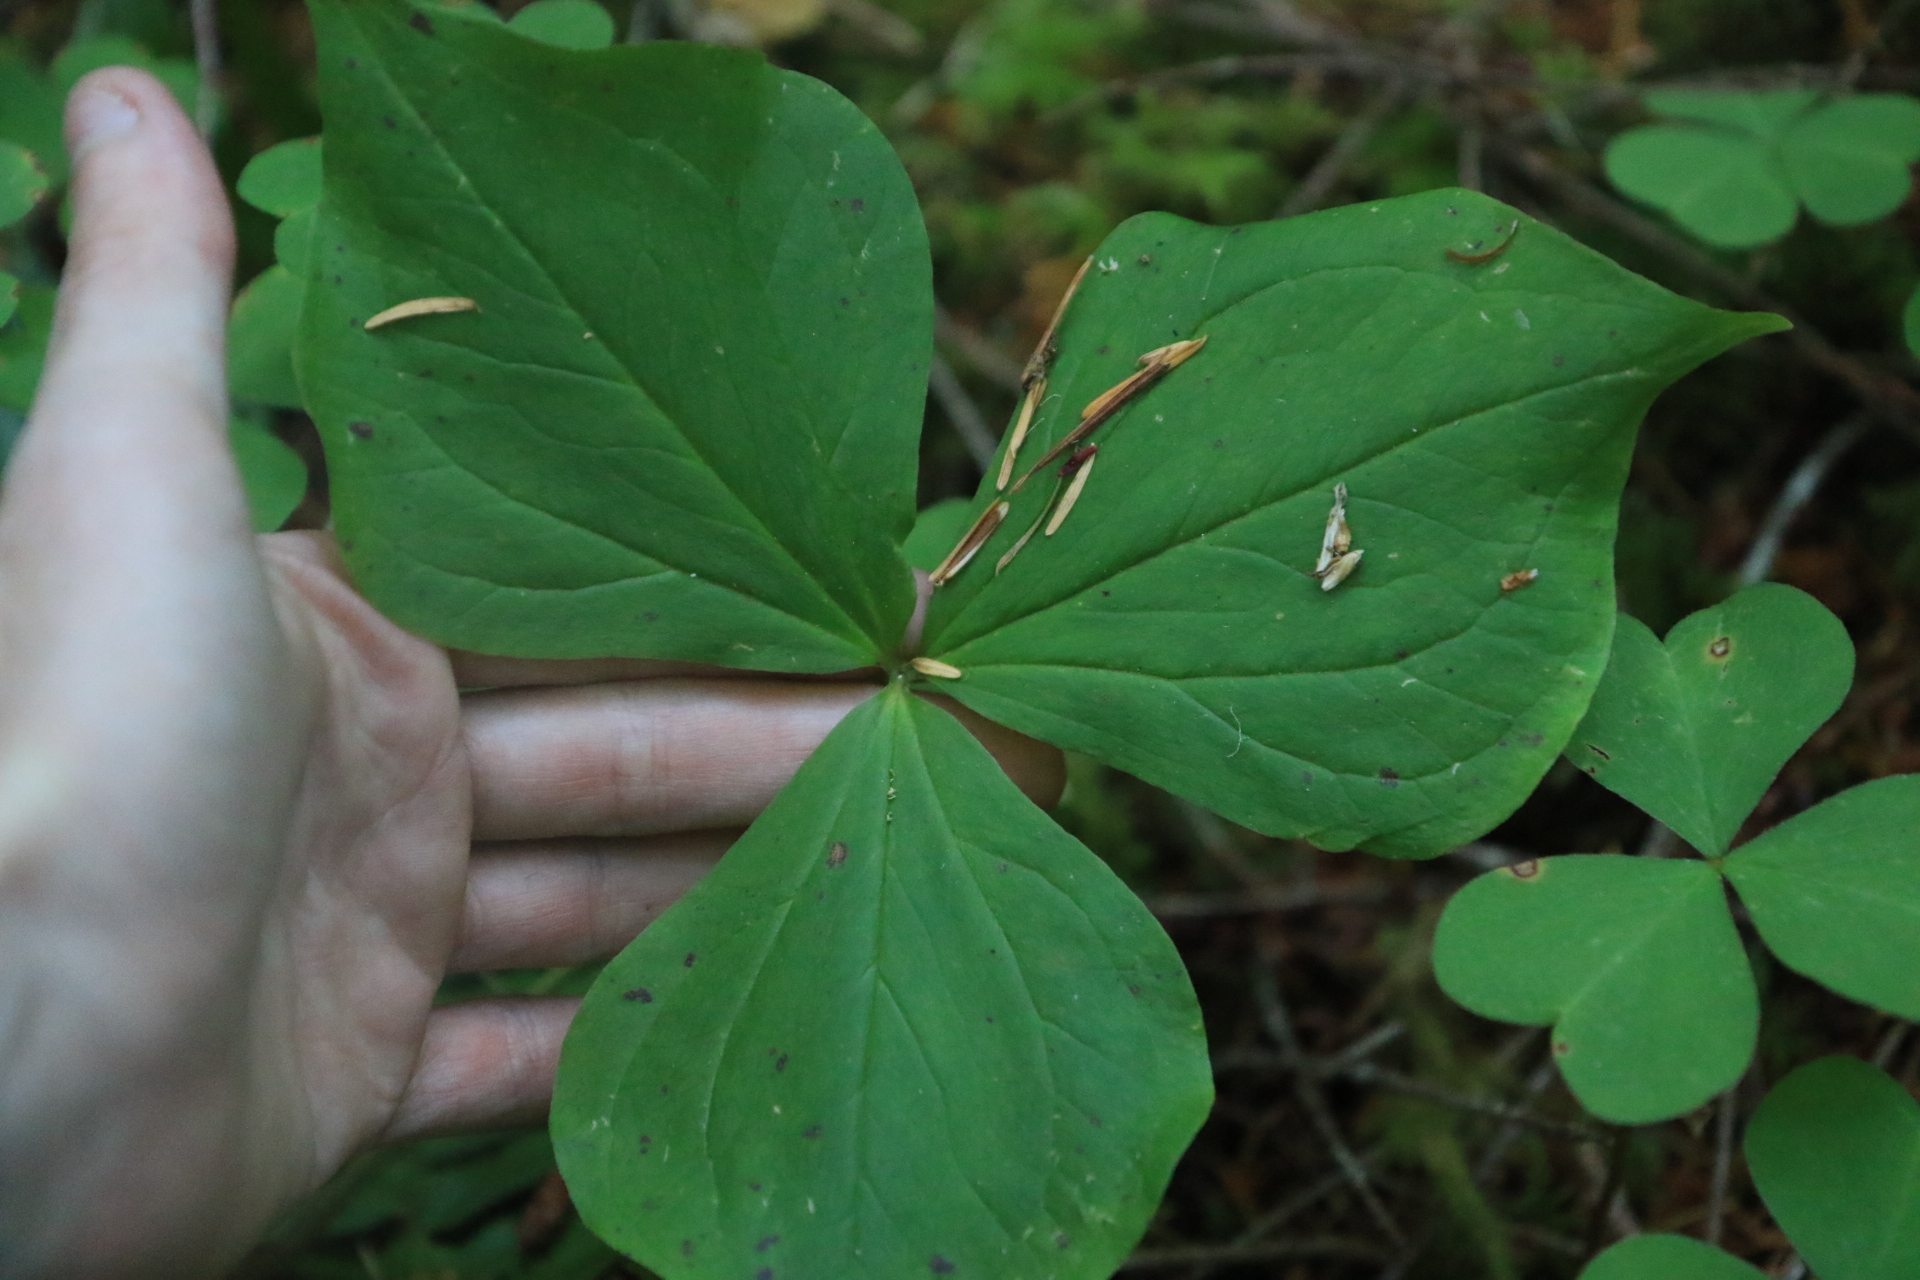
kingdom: Plantae
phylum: Tracheophyta
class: Liliopsida
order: Liliales
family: Melanthiaceae
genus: Trillium
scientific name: Trillium ovatum
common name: Pacific trillium
